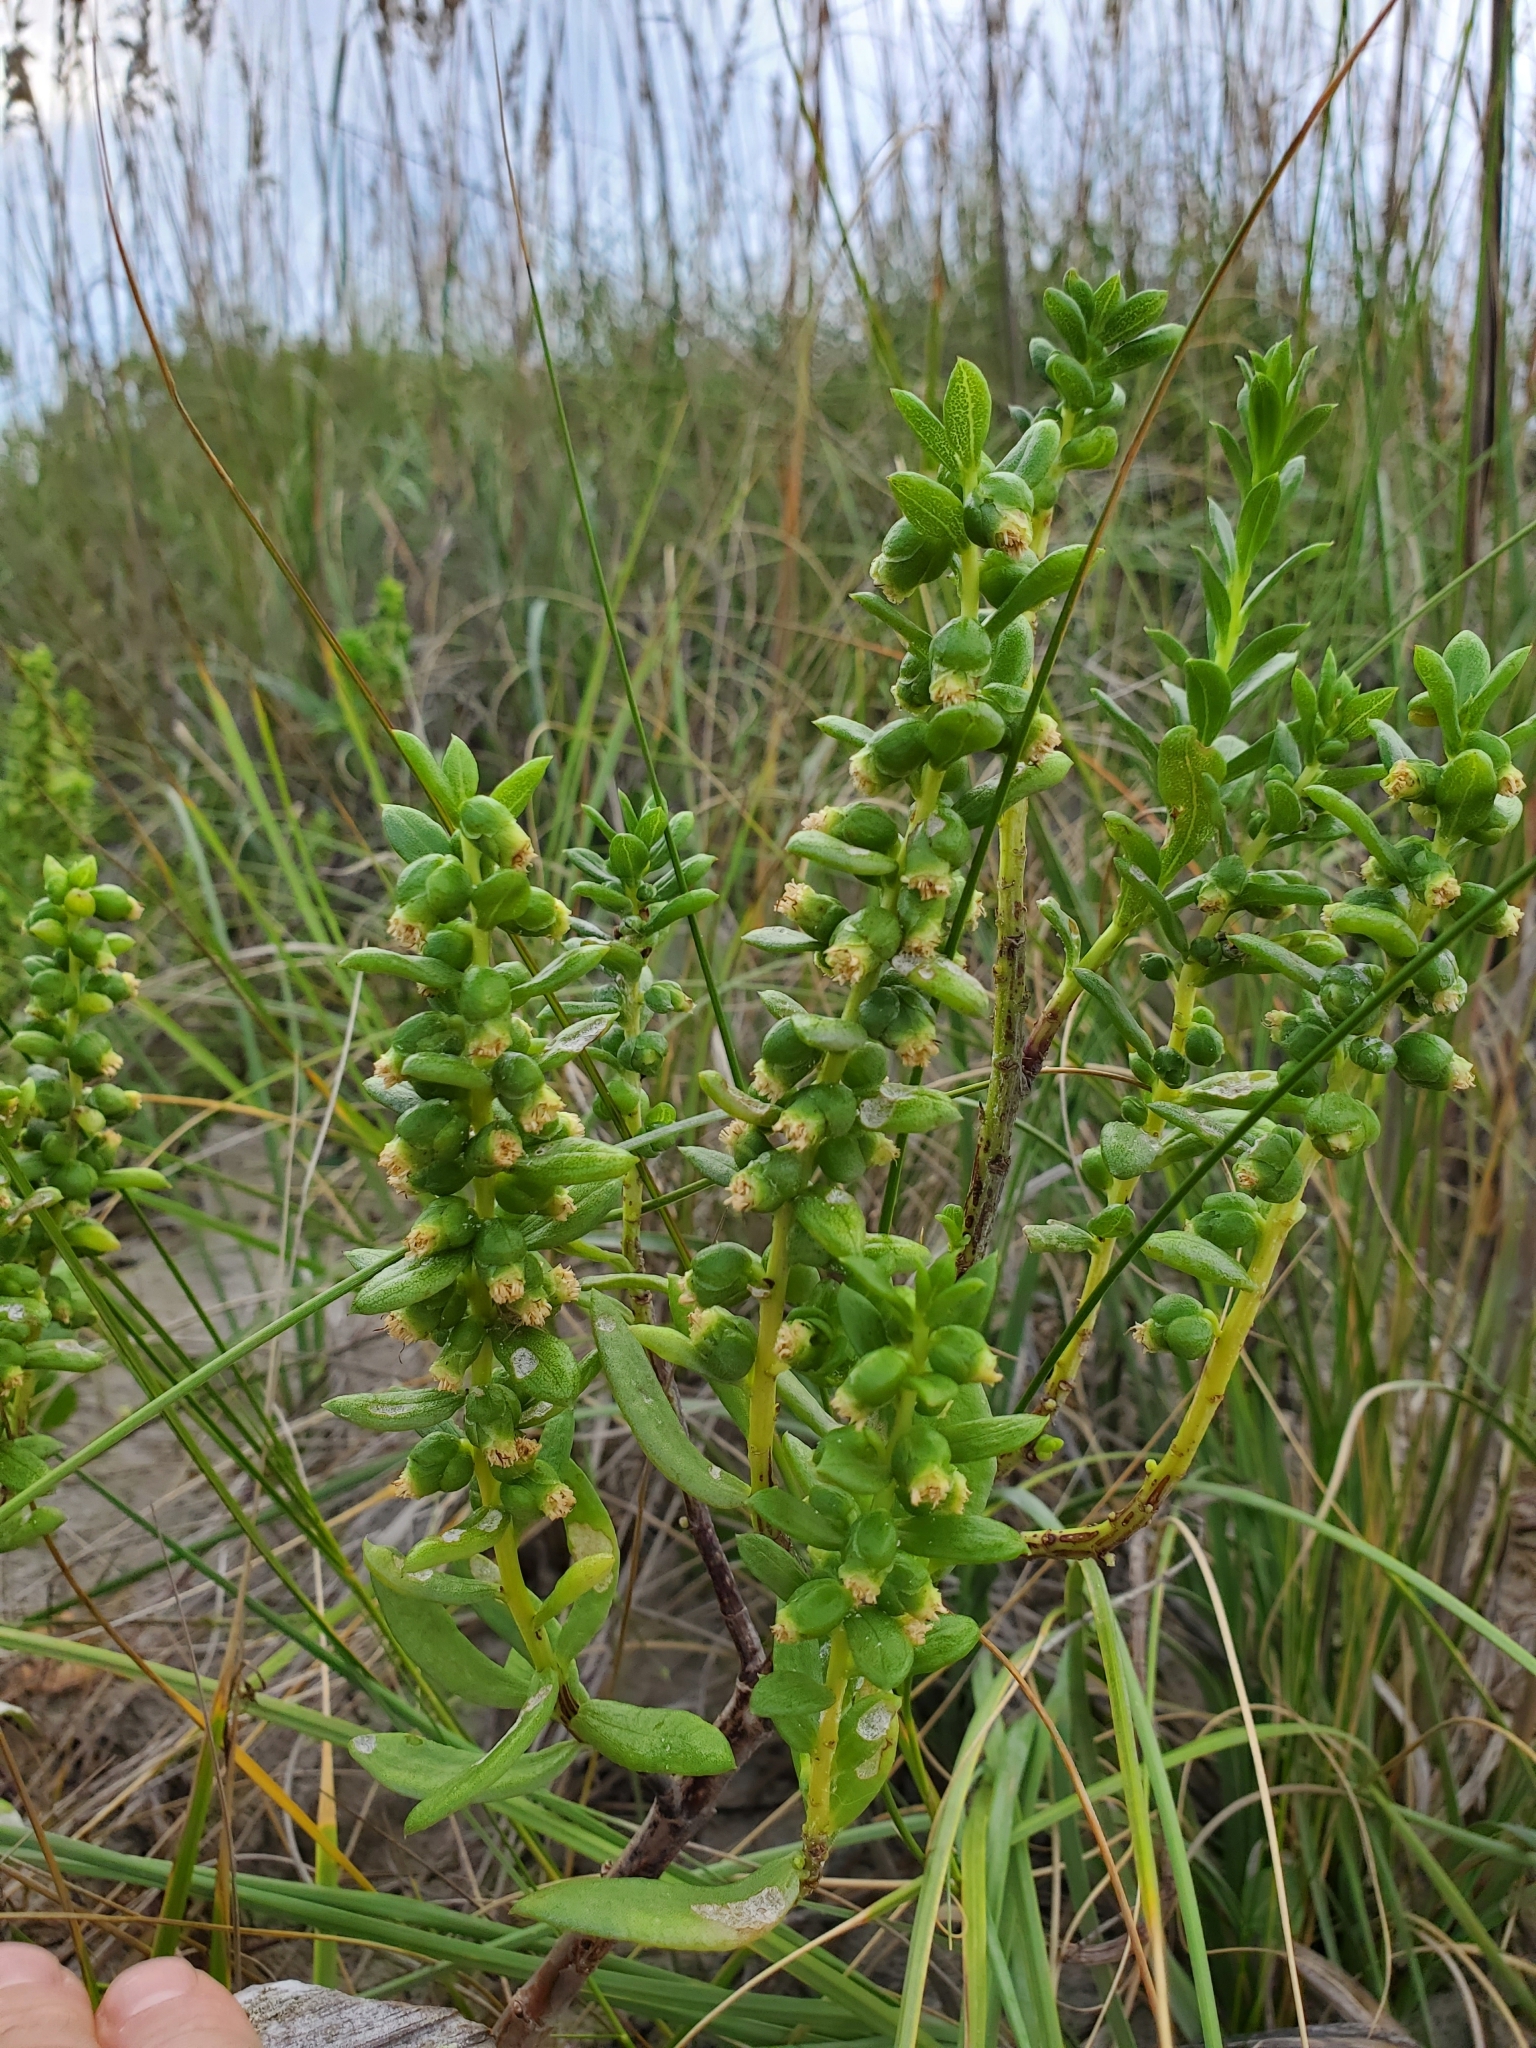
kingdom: Plantae
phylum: Tracheophyta
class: Magnoliopsida
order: Asterales
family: Asteraceae
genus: Iva
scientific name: Iva imbricata
